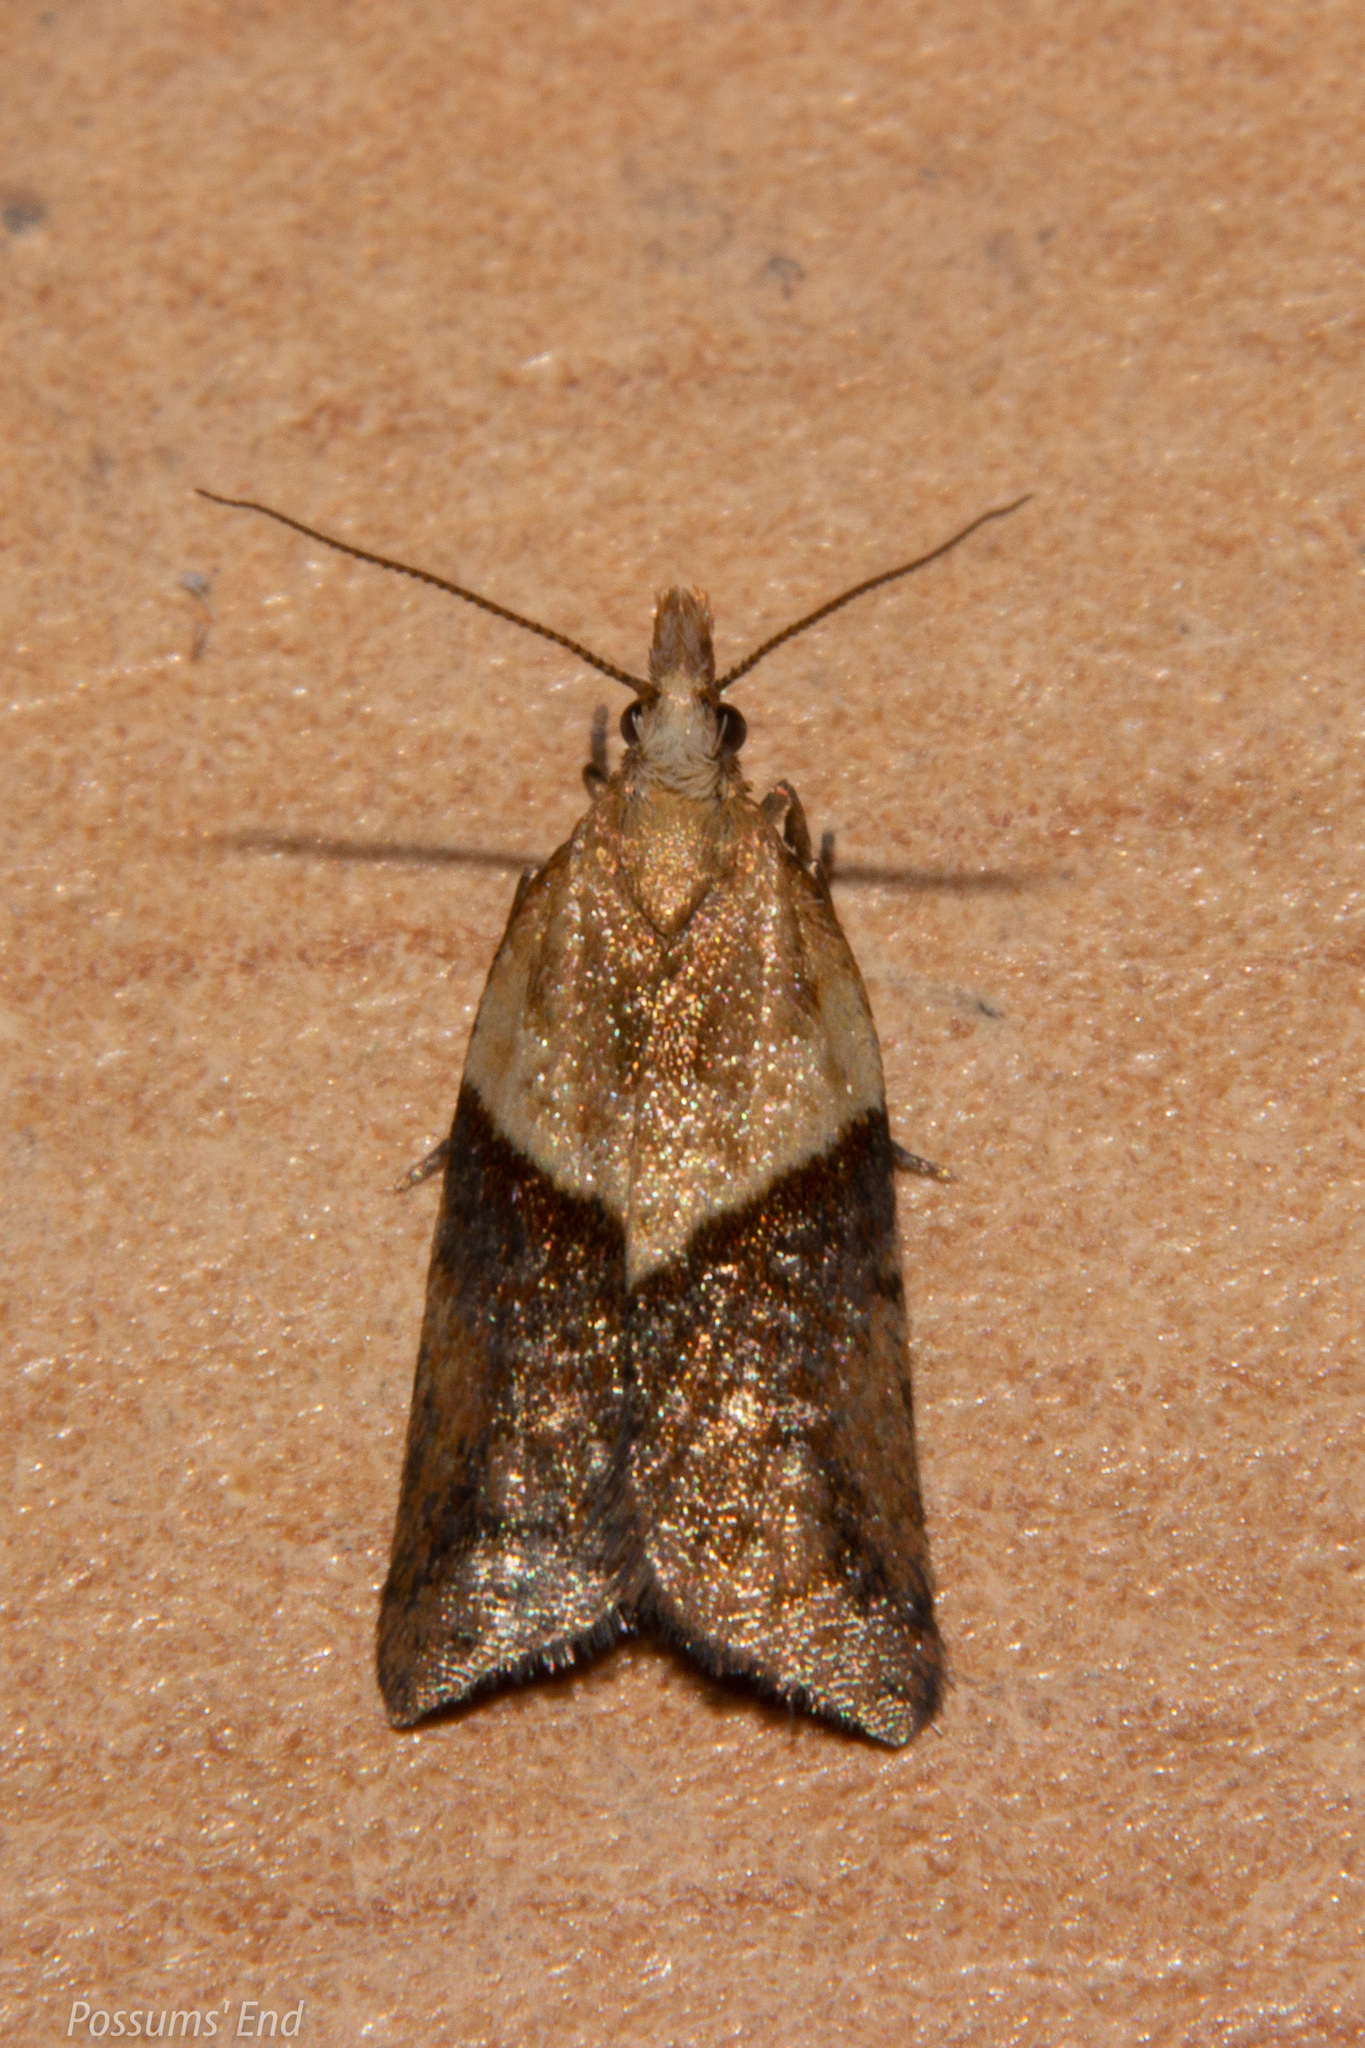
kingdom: Animalia
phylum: Arthropoda
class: Insecta
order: Lepidoptera
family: Tortricidae
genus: Epichorista
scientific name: Epichorista hemionana
